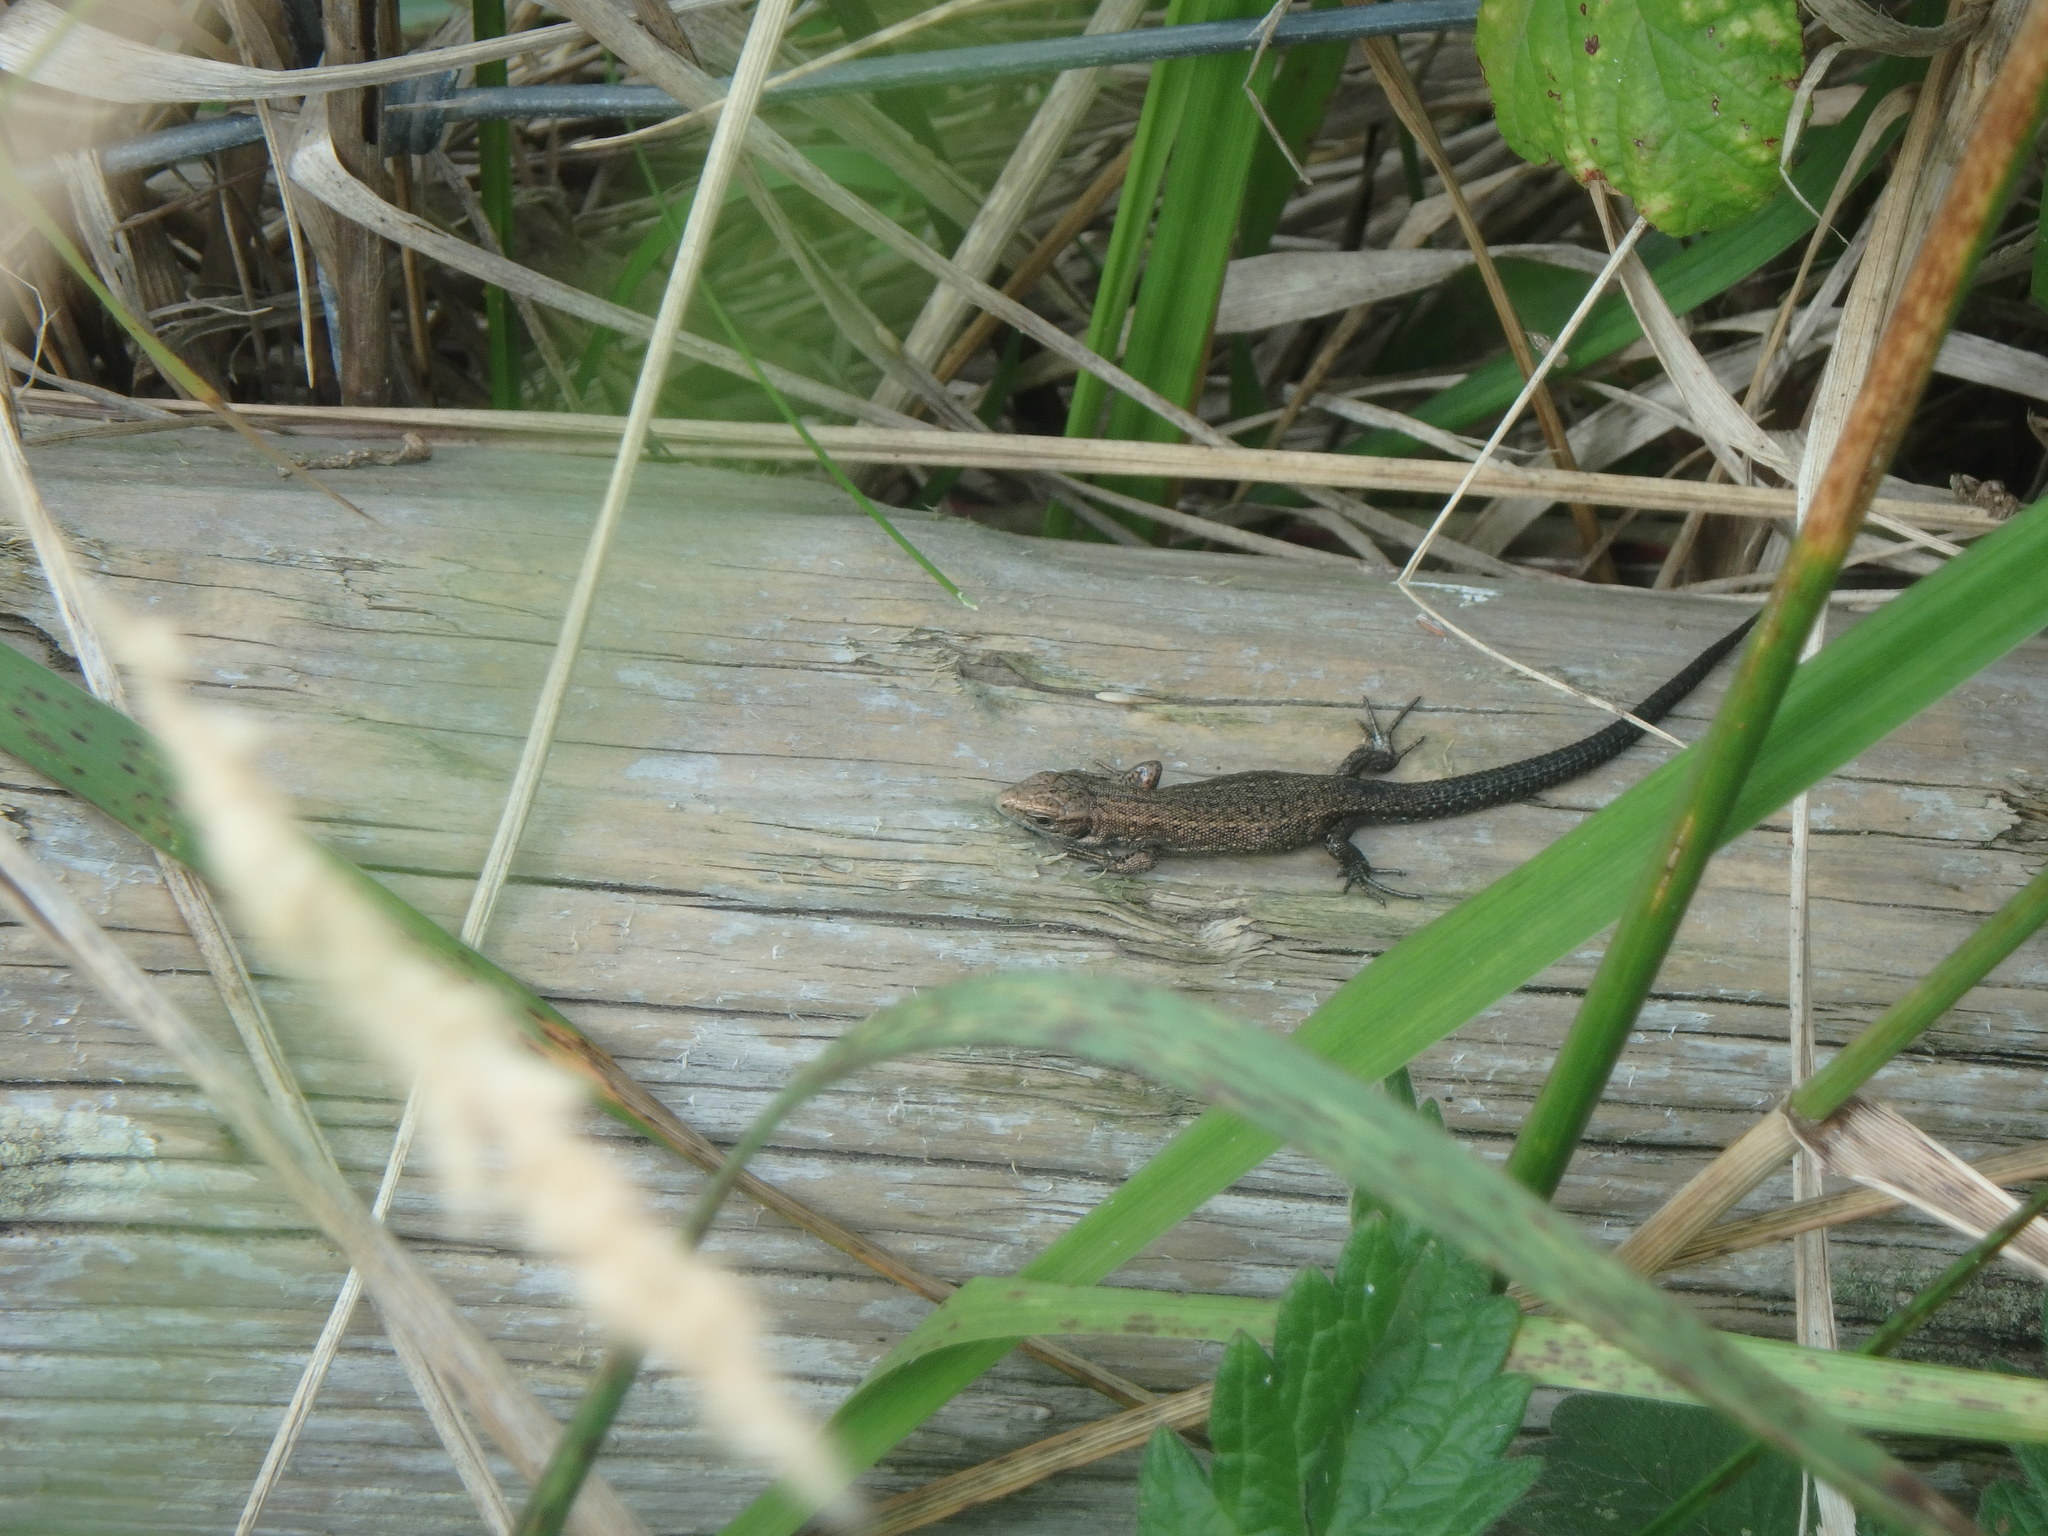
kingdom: Animalia
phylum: Chordata
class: Squamata
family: Lacertidae
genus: Zootoca
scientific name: Zootoca vivipara
